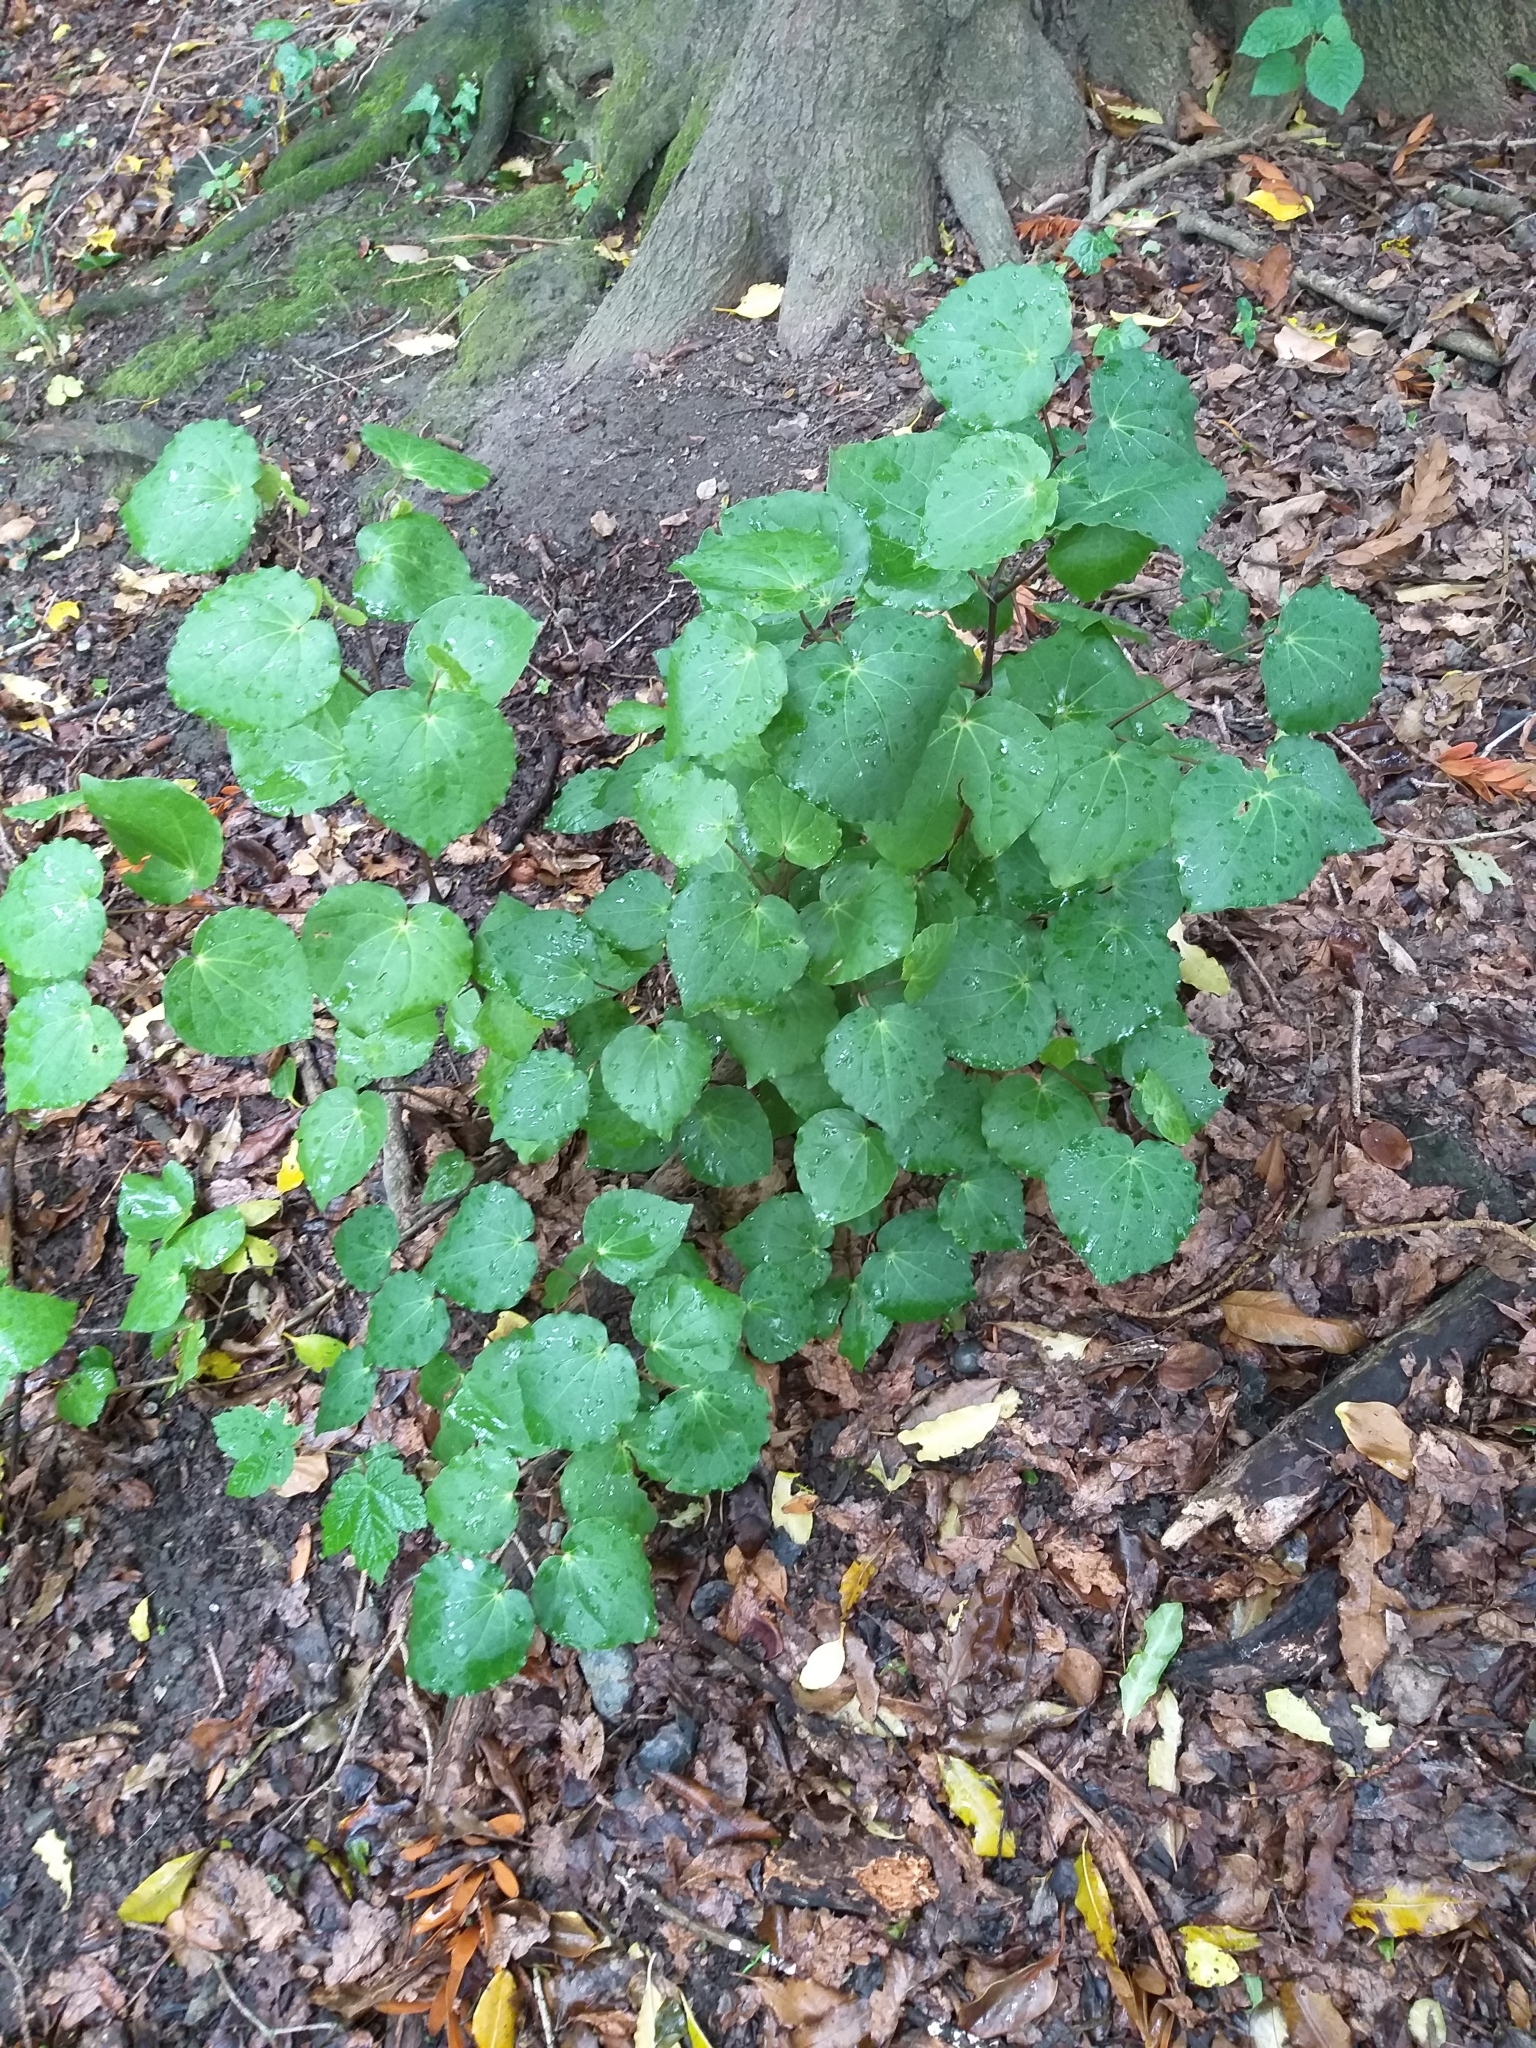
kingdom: Plantae
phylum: Tracheophyta
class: Magnoliopsida
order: Piperales
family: Piperaceae
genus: Macropiper
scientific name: Macropiper excelsum
